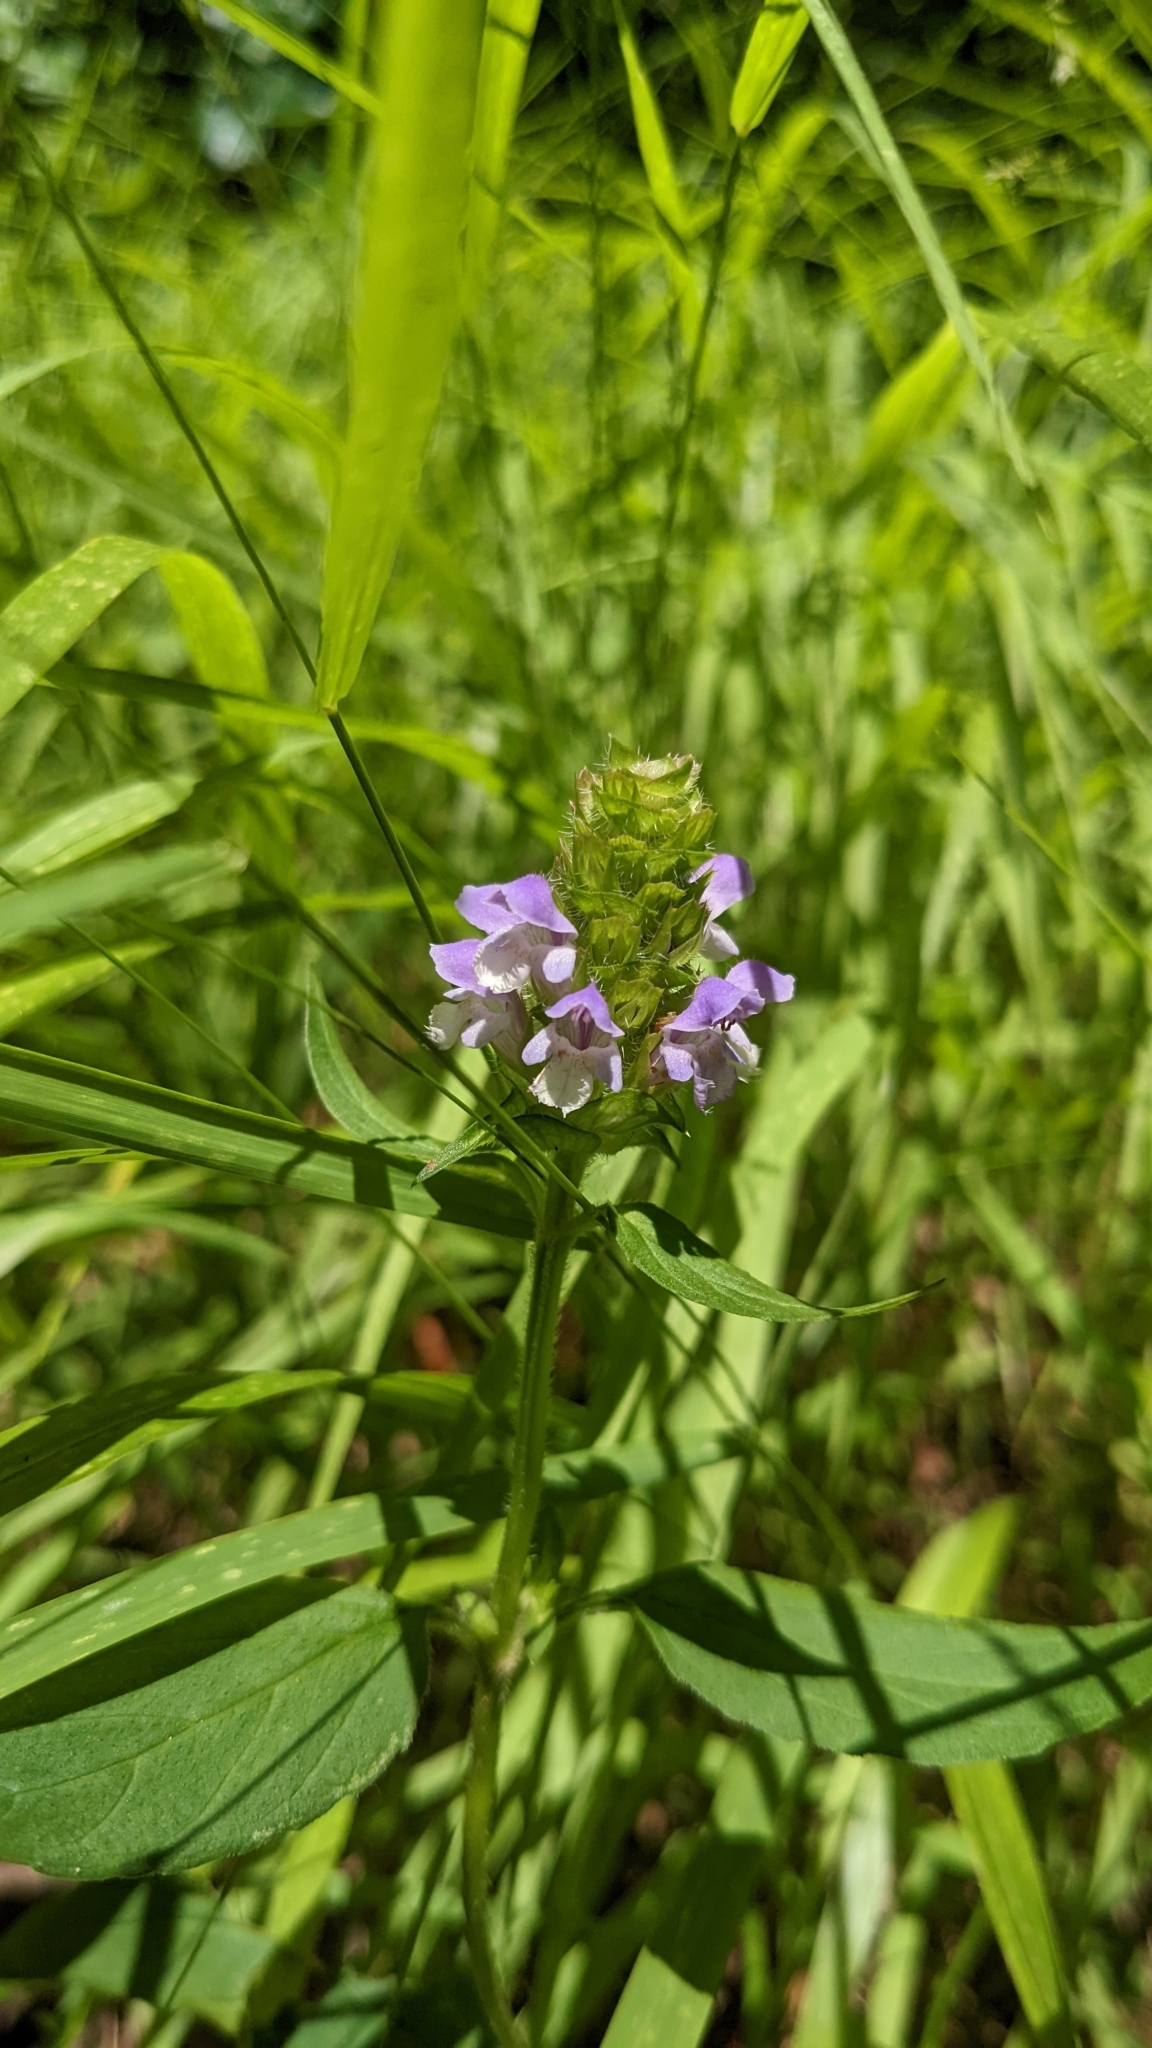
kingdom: Plantae
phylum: Tracheophyta
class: Magnoliopsida
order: Lamiales
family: Lamiaceae
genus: Prunella
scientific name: Prunella vulgaris
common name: Heal-all
